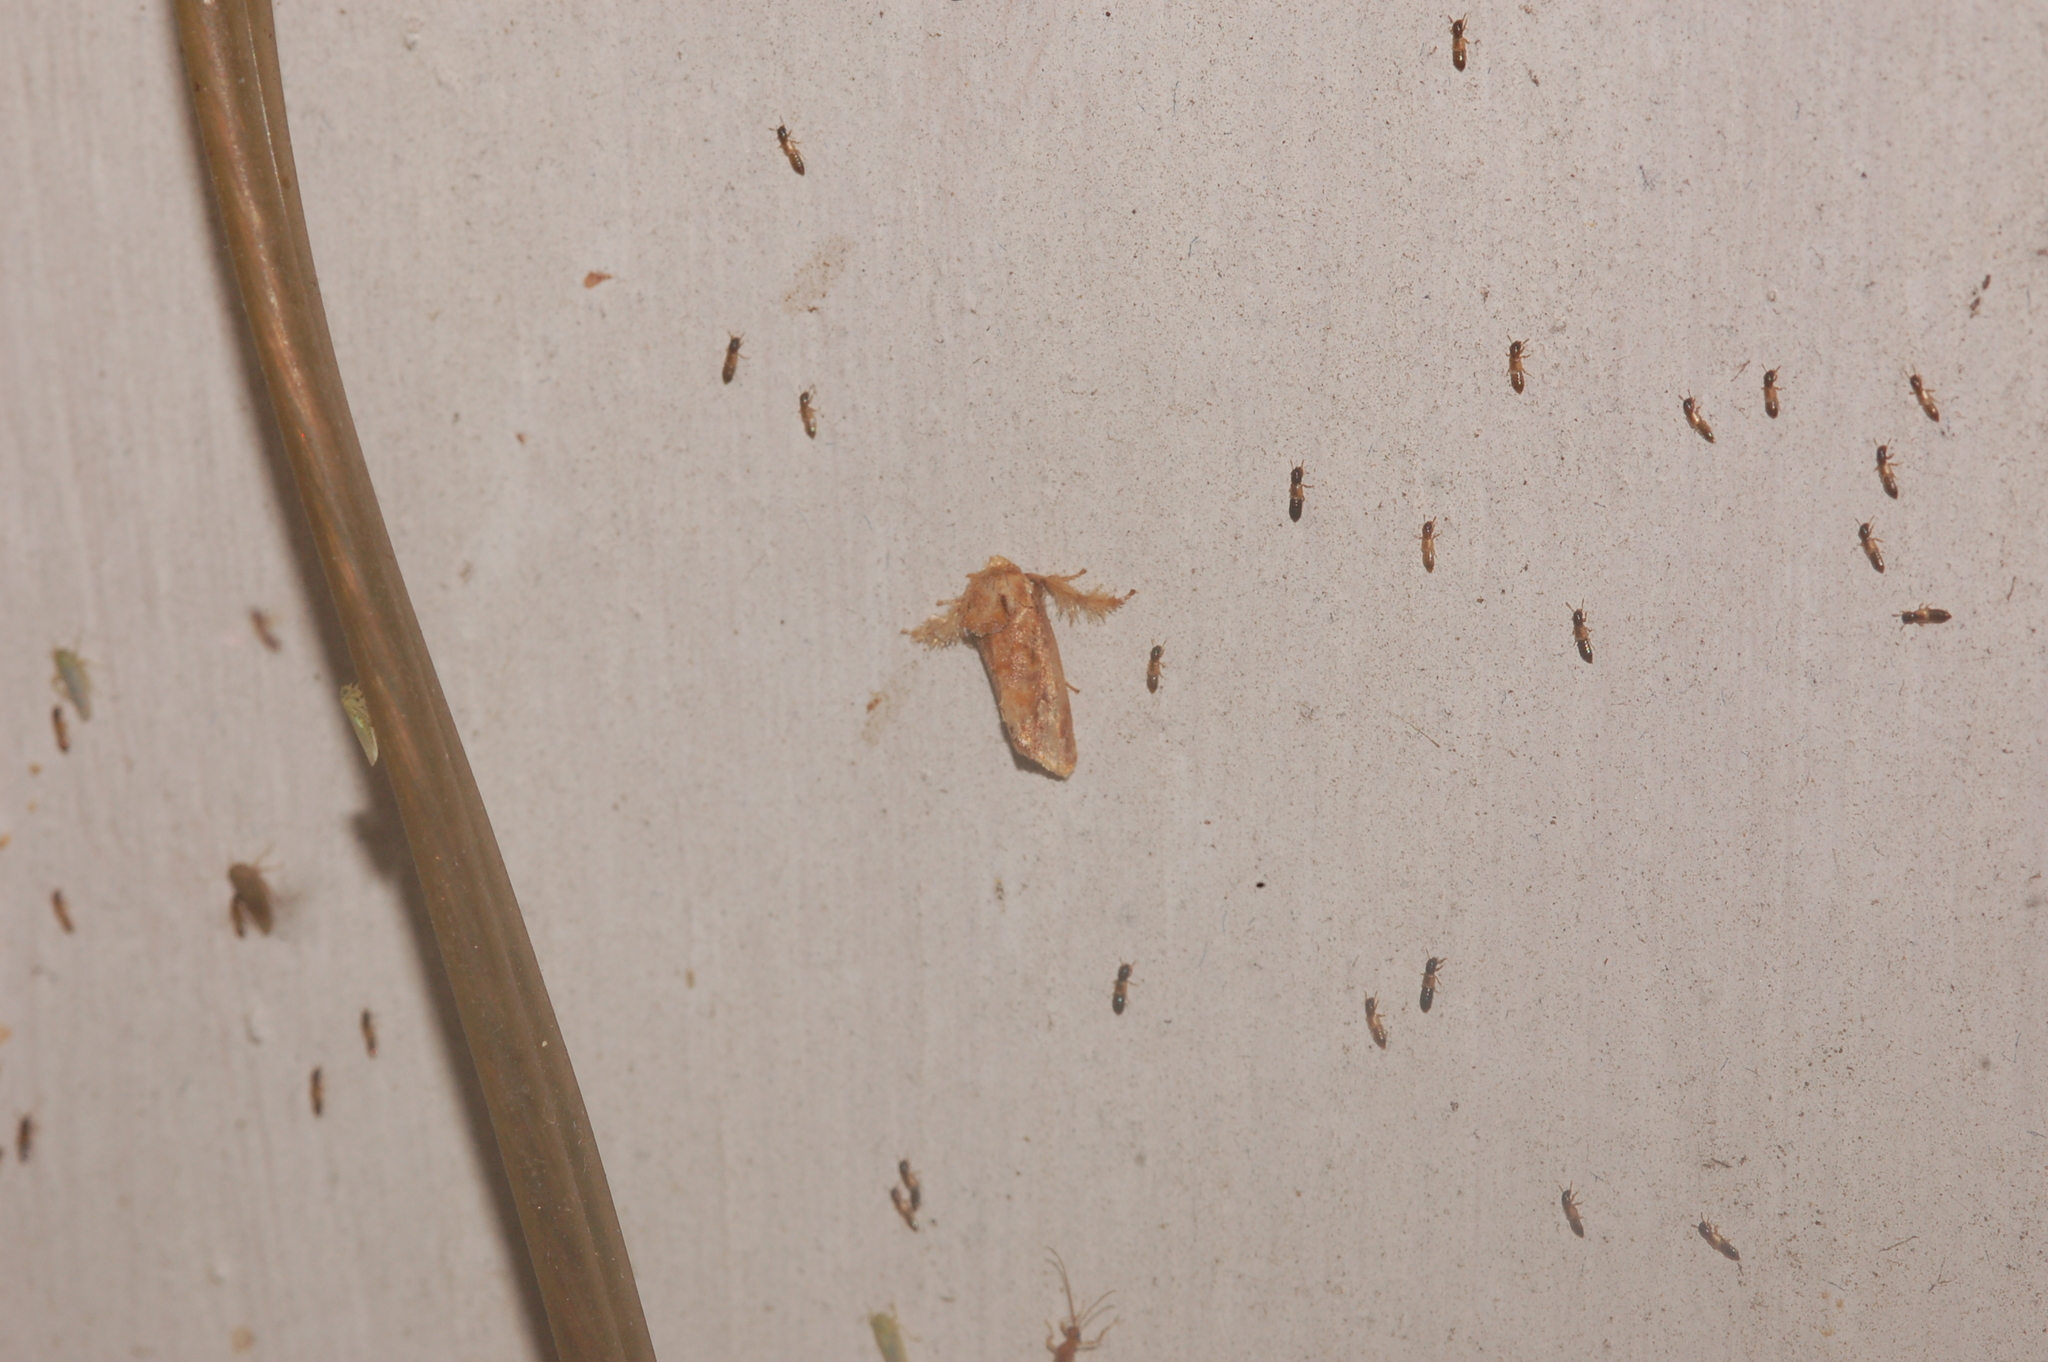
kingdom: Animalia
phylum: Arthropoda
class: Insecta
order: Lepidoptera
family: Limacodidae
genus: Isochaetes
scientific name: Isochaetes beutenmuelleri
